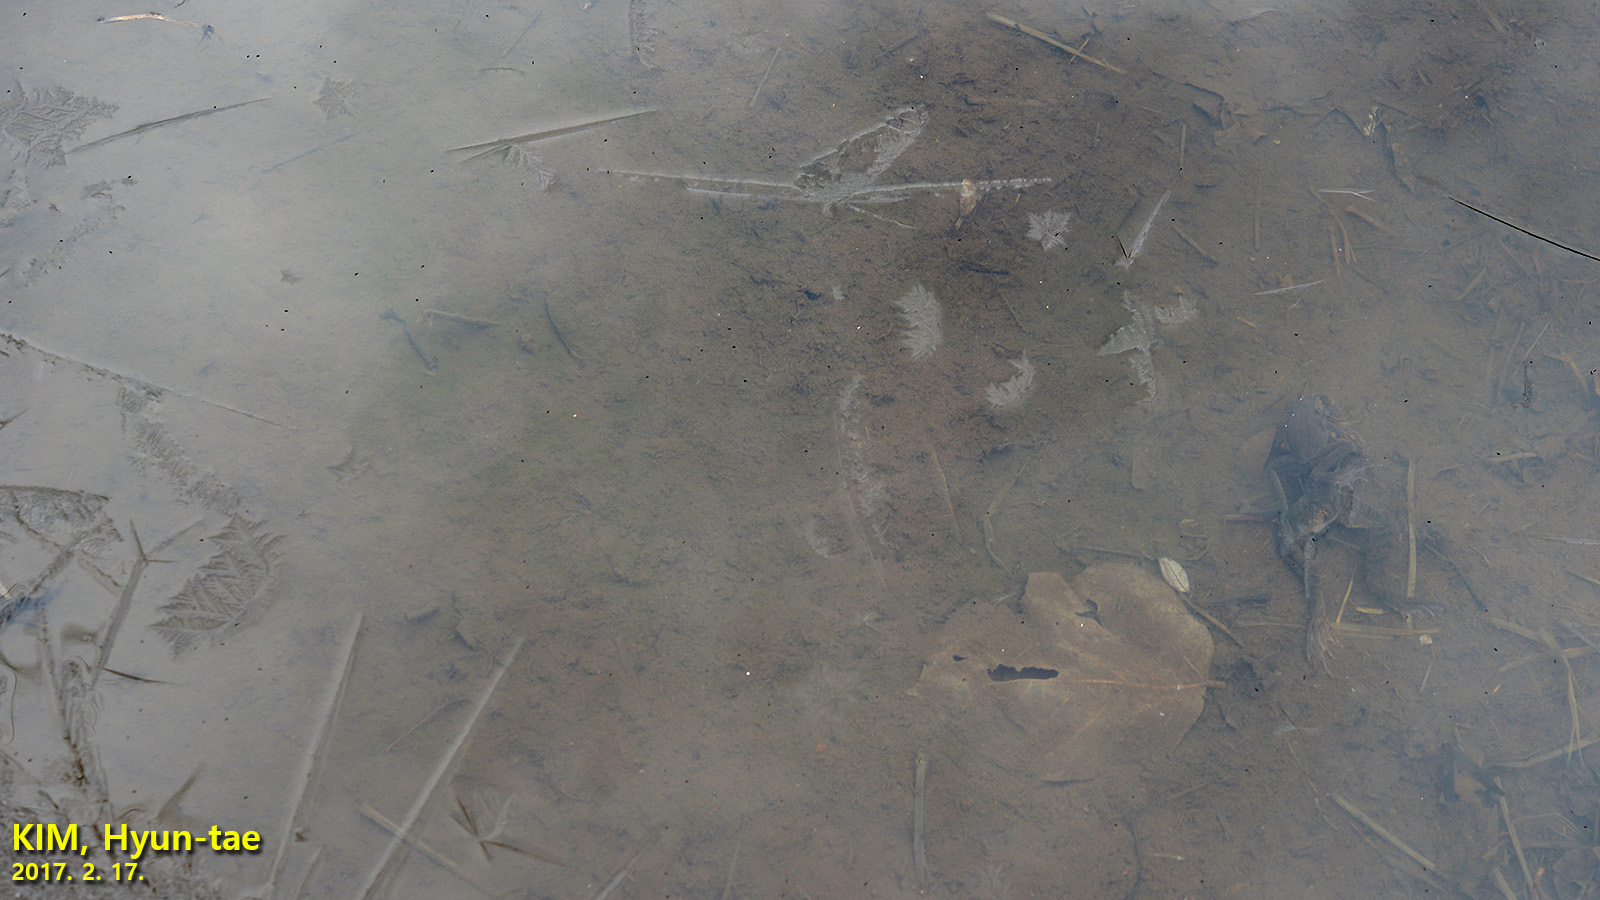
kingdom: Animalia
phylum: Chordata
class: Amphibia
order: Anura
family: Ranidae
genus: Rana
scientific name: Rana uenoi
